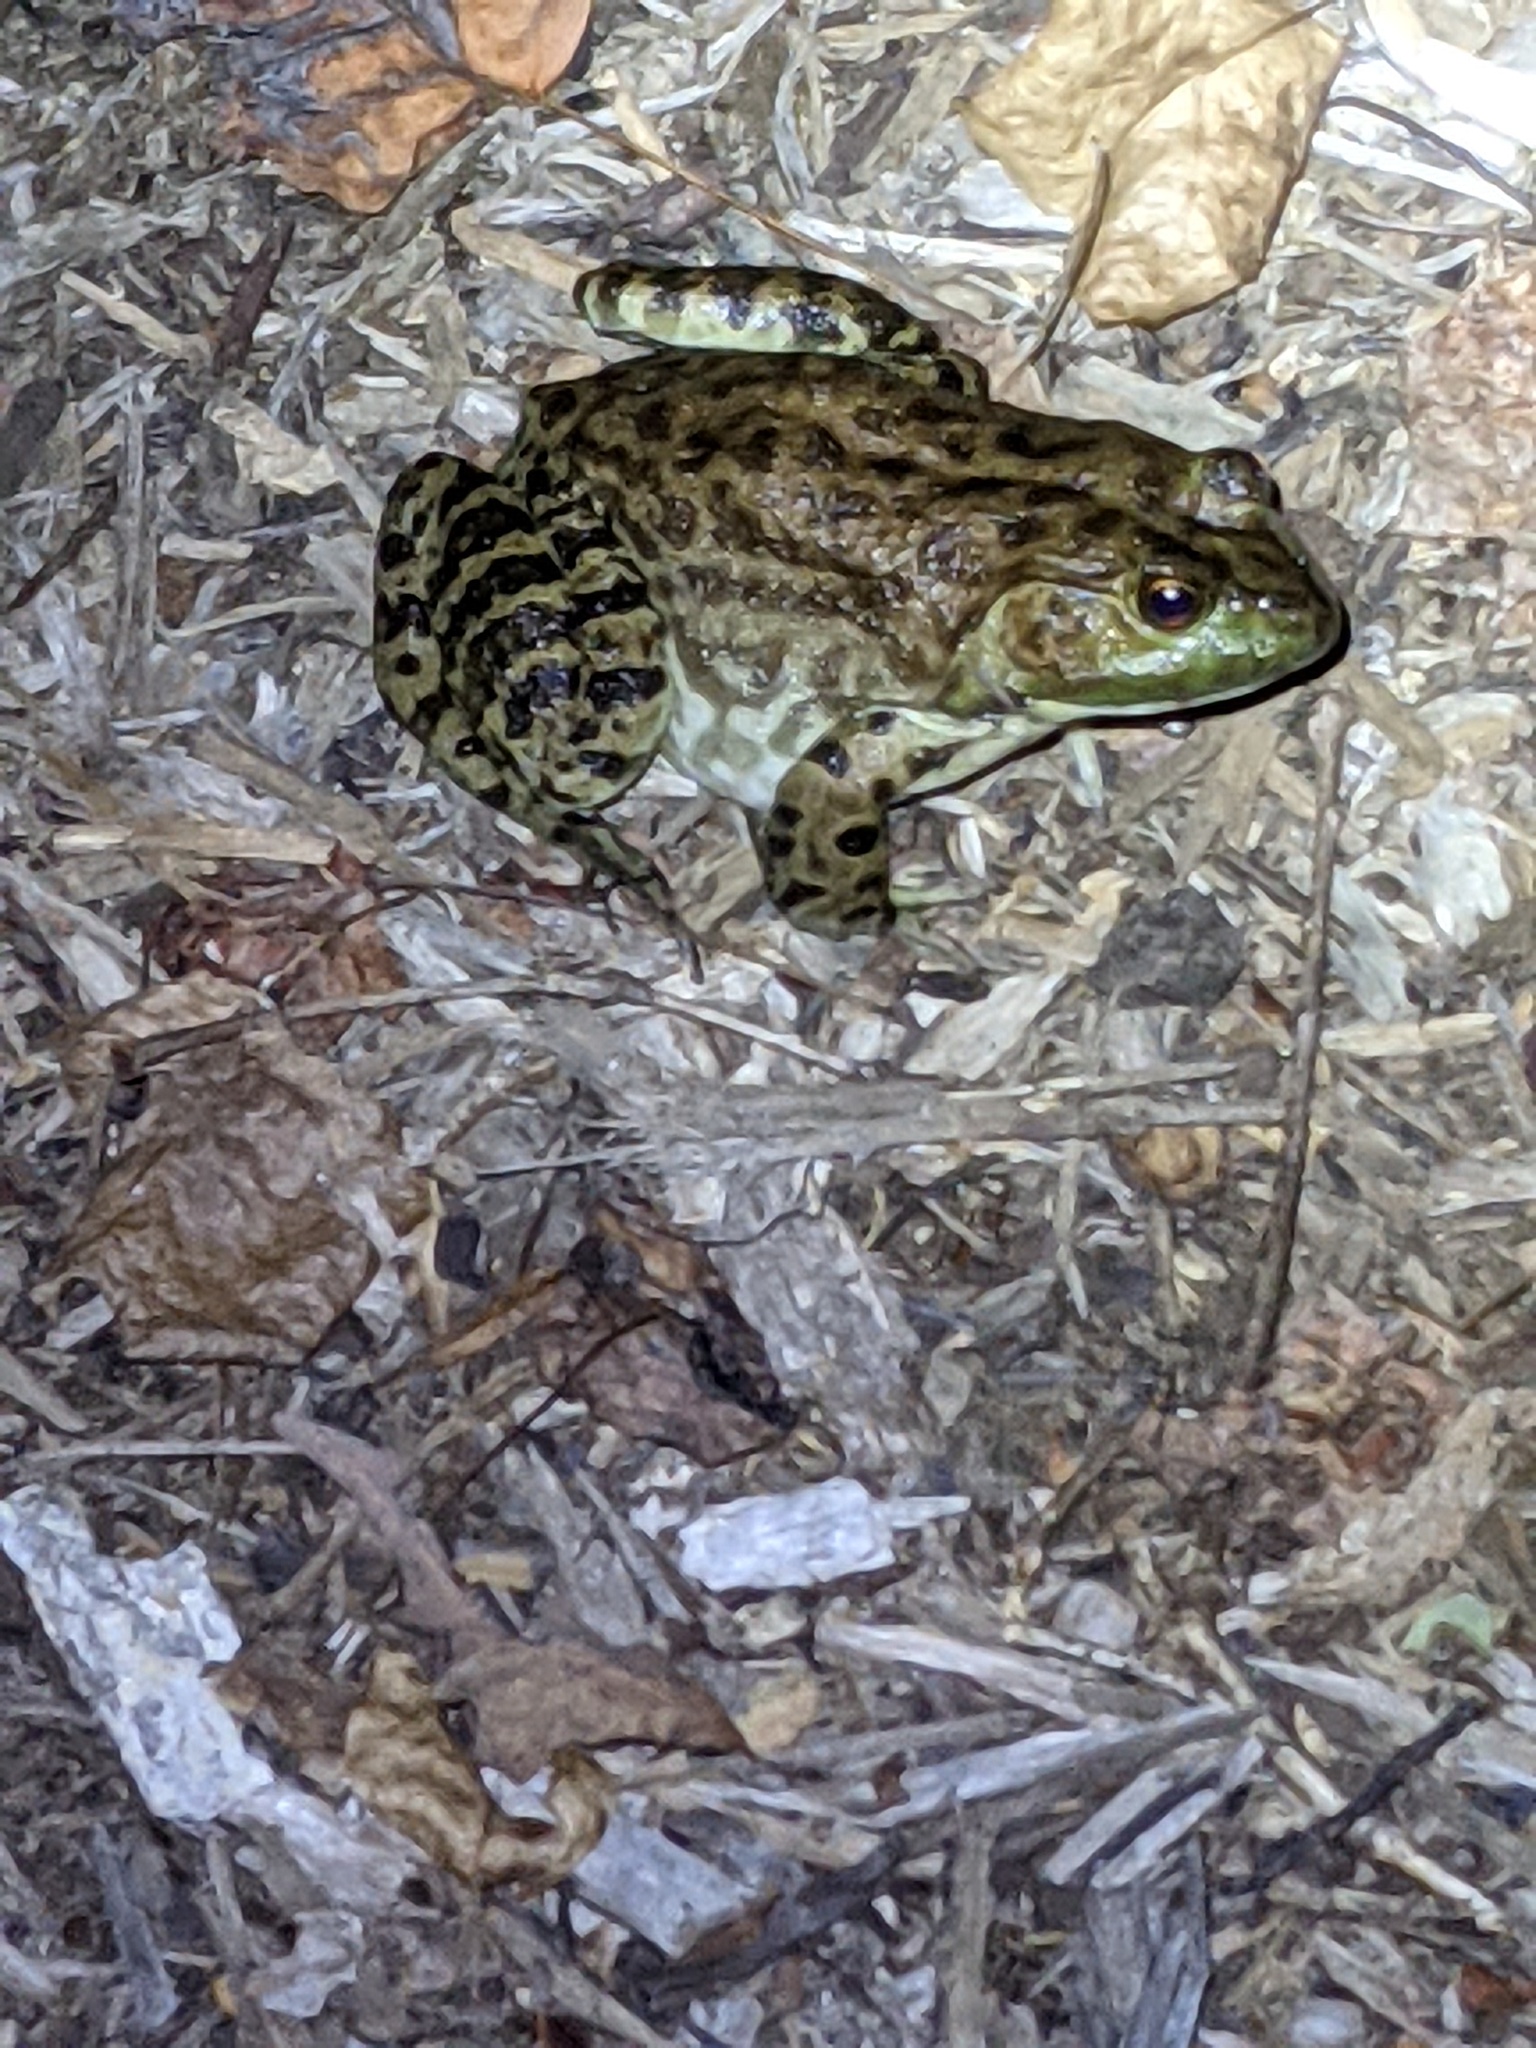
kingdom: Animalia
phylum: Chordata
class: Amphibia
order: Anura
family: Ranidae
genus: Lithobates
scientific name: Lithobates catesbeianus
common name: American bullfrog
